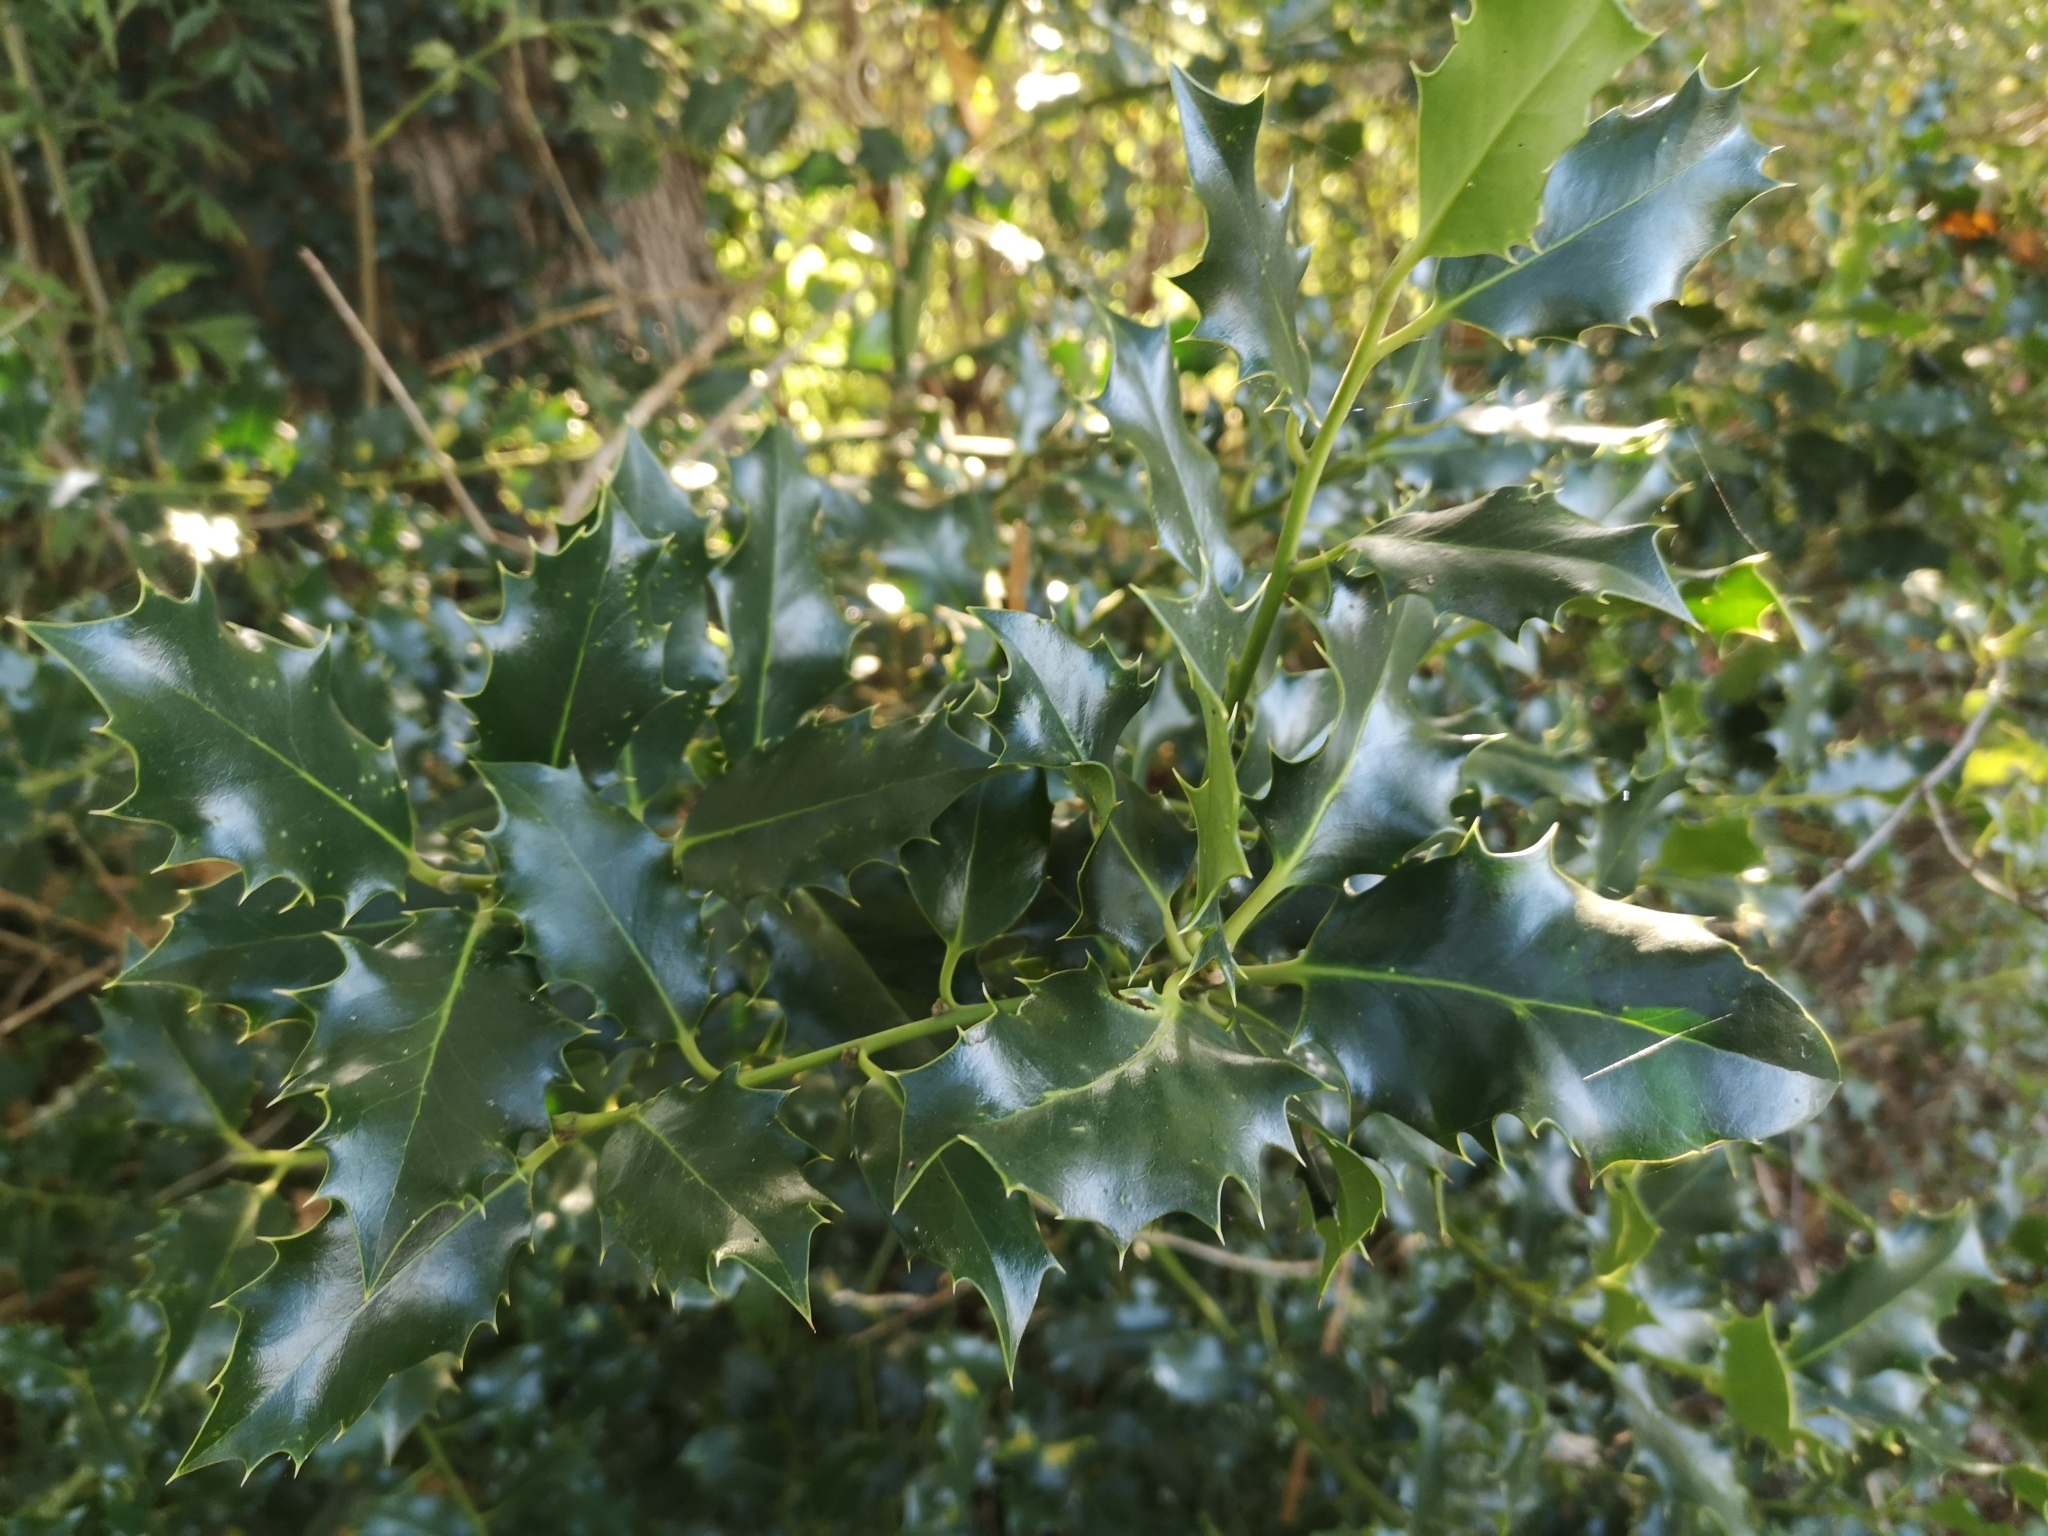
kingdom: Plantae
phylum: Tracheophyta
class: Magnoliopsida
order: Aquifoliales
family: Aquifoliaceae
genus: Ilex
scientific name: Ilex aquifolium
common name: English holly
